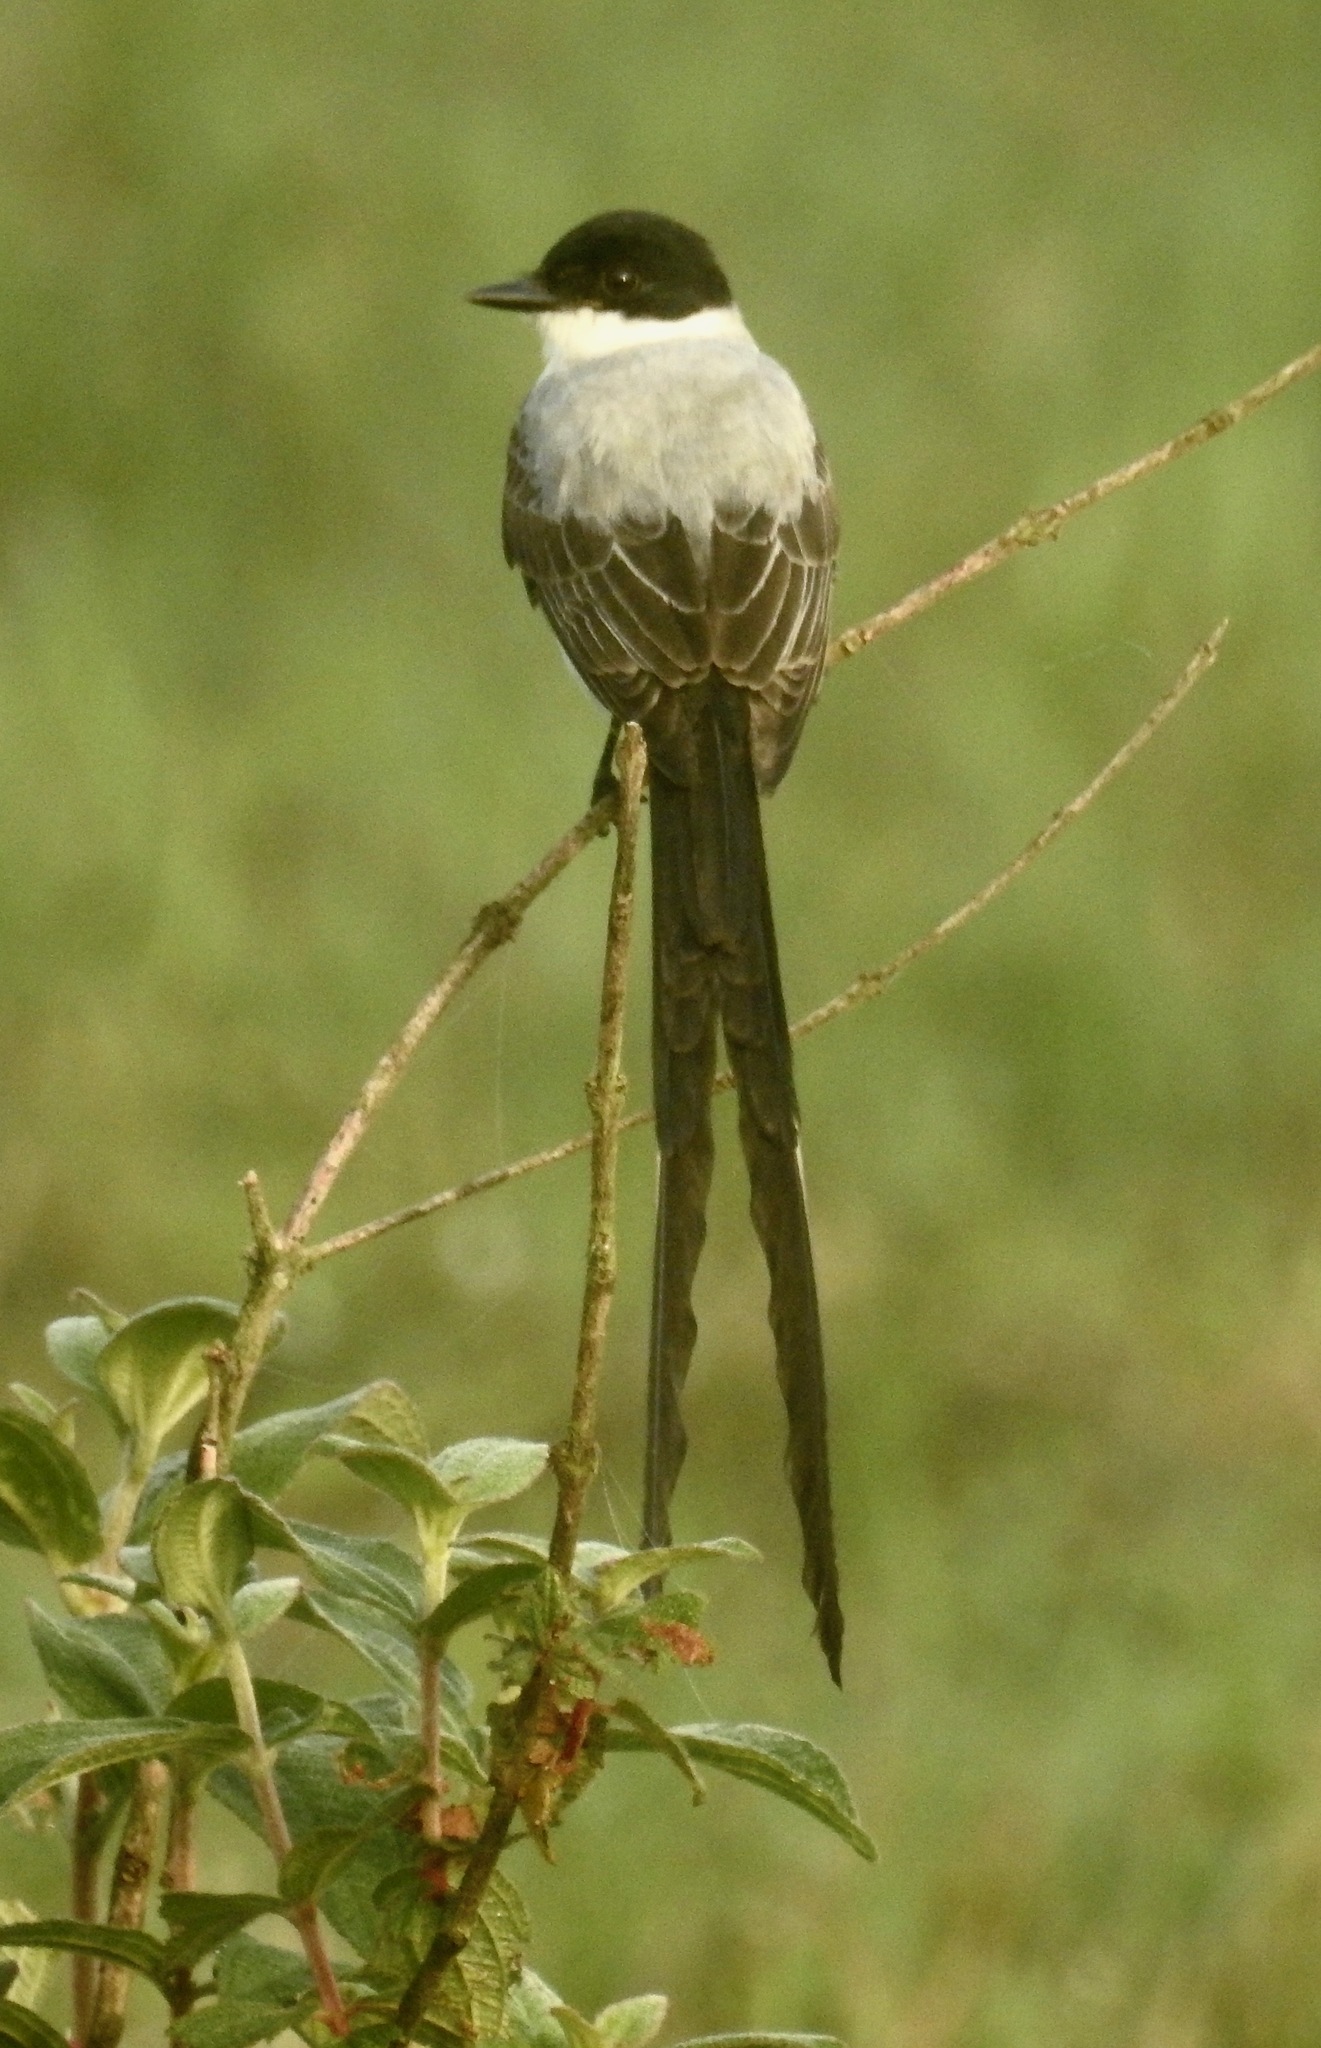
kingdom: Animalia
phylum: Chordata
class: Aves
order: Passeriformes
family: Tyrannidae
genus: Tyrannus
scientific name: Tyrannus savana
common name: Fork-tailed flycatcher
